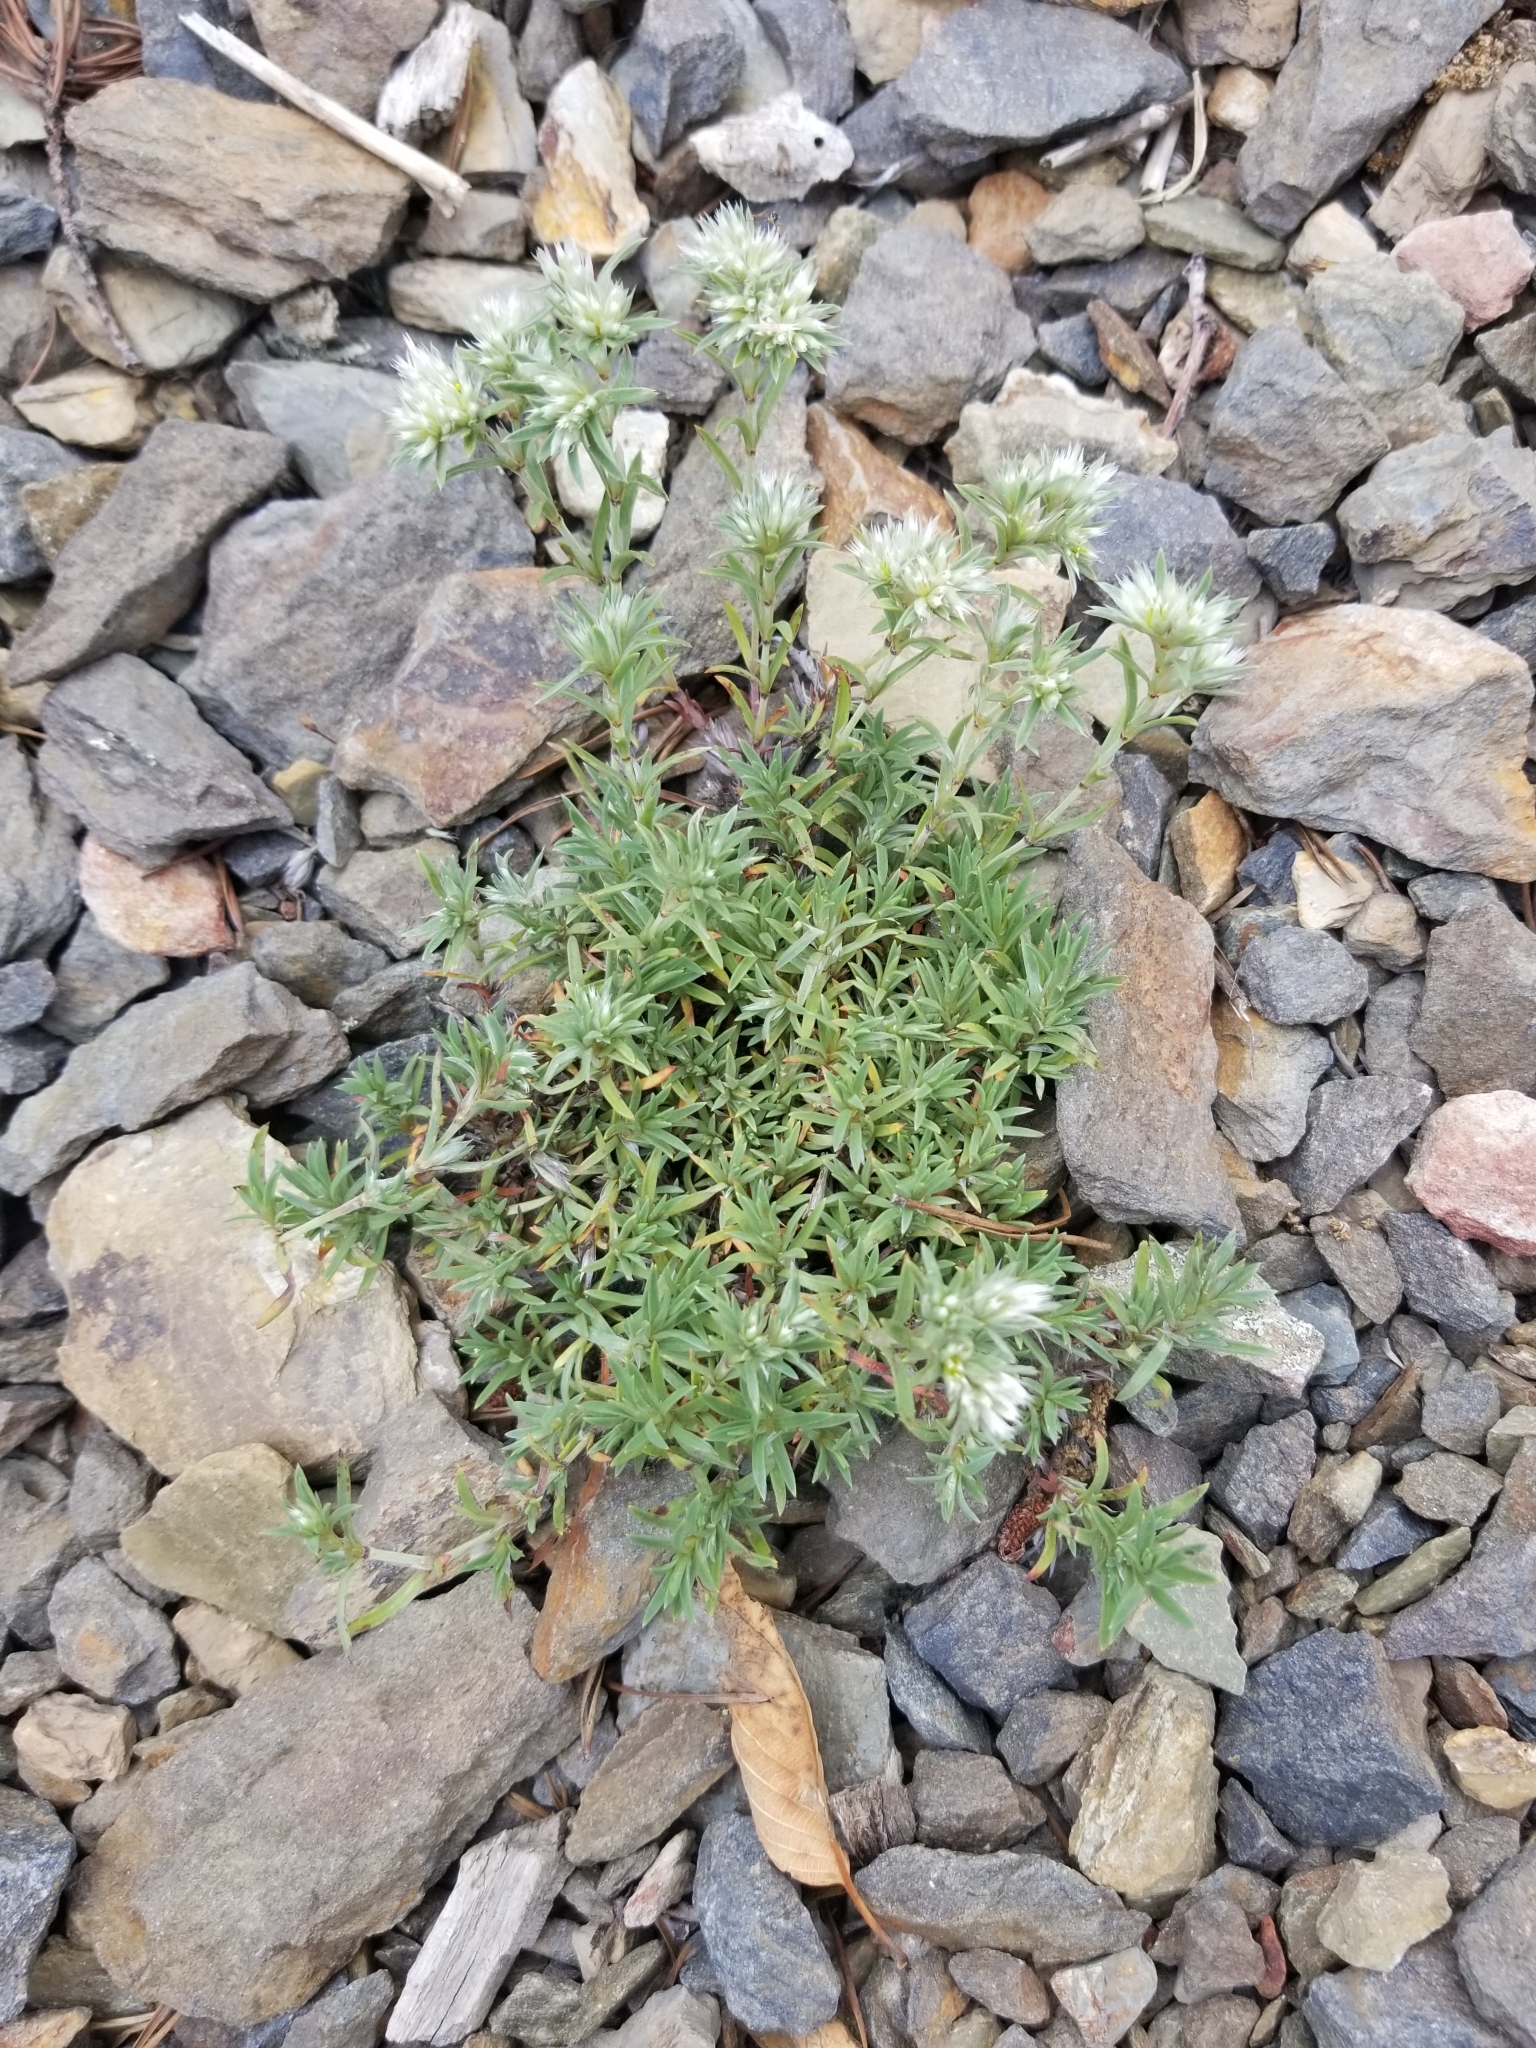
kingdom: Plantae
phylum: Tracheophyta
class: Magnoliopsida
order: Caryophyllales
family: Caryophyllaceae
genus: Paronychia
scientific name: Paronychia argyrocoma
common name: Silverling
